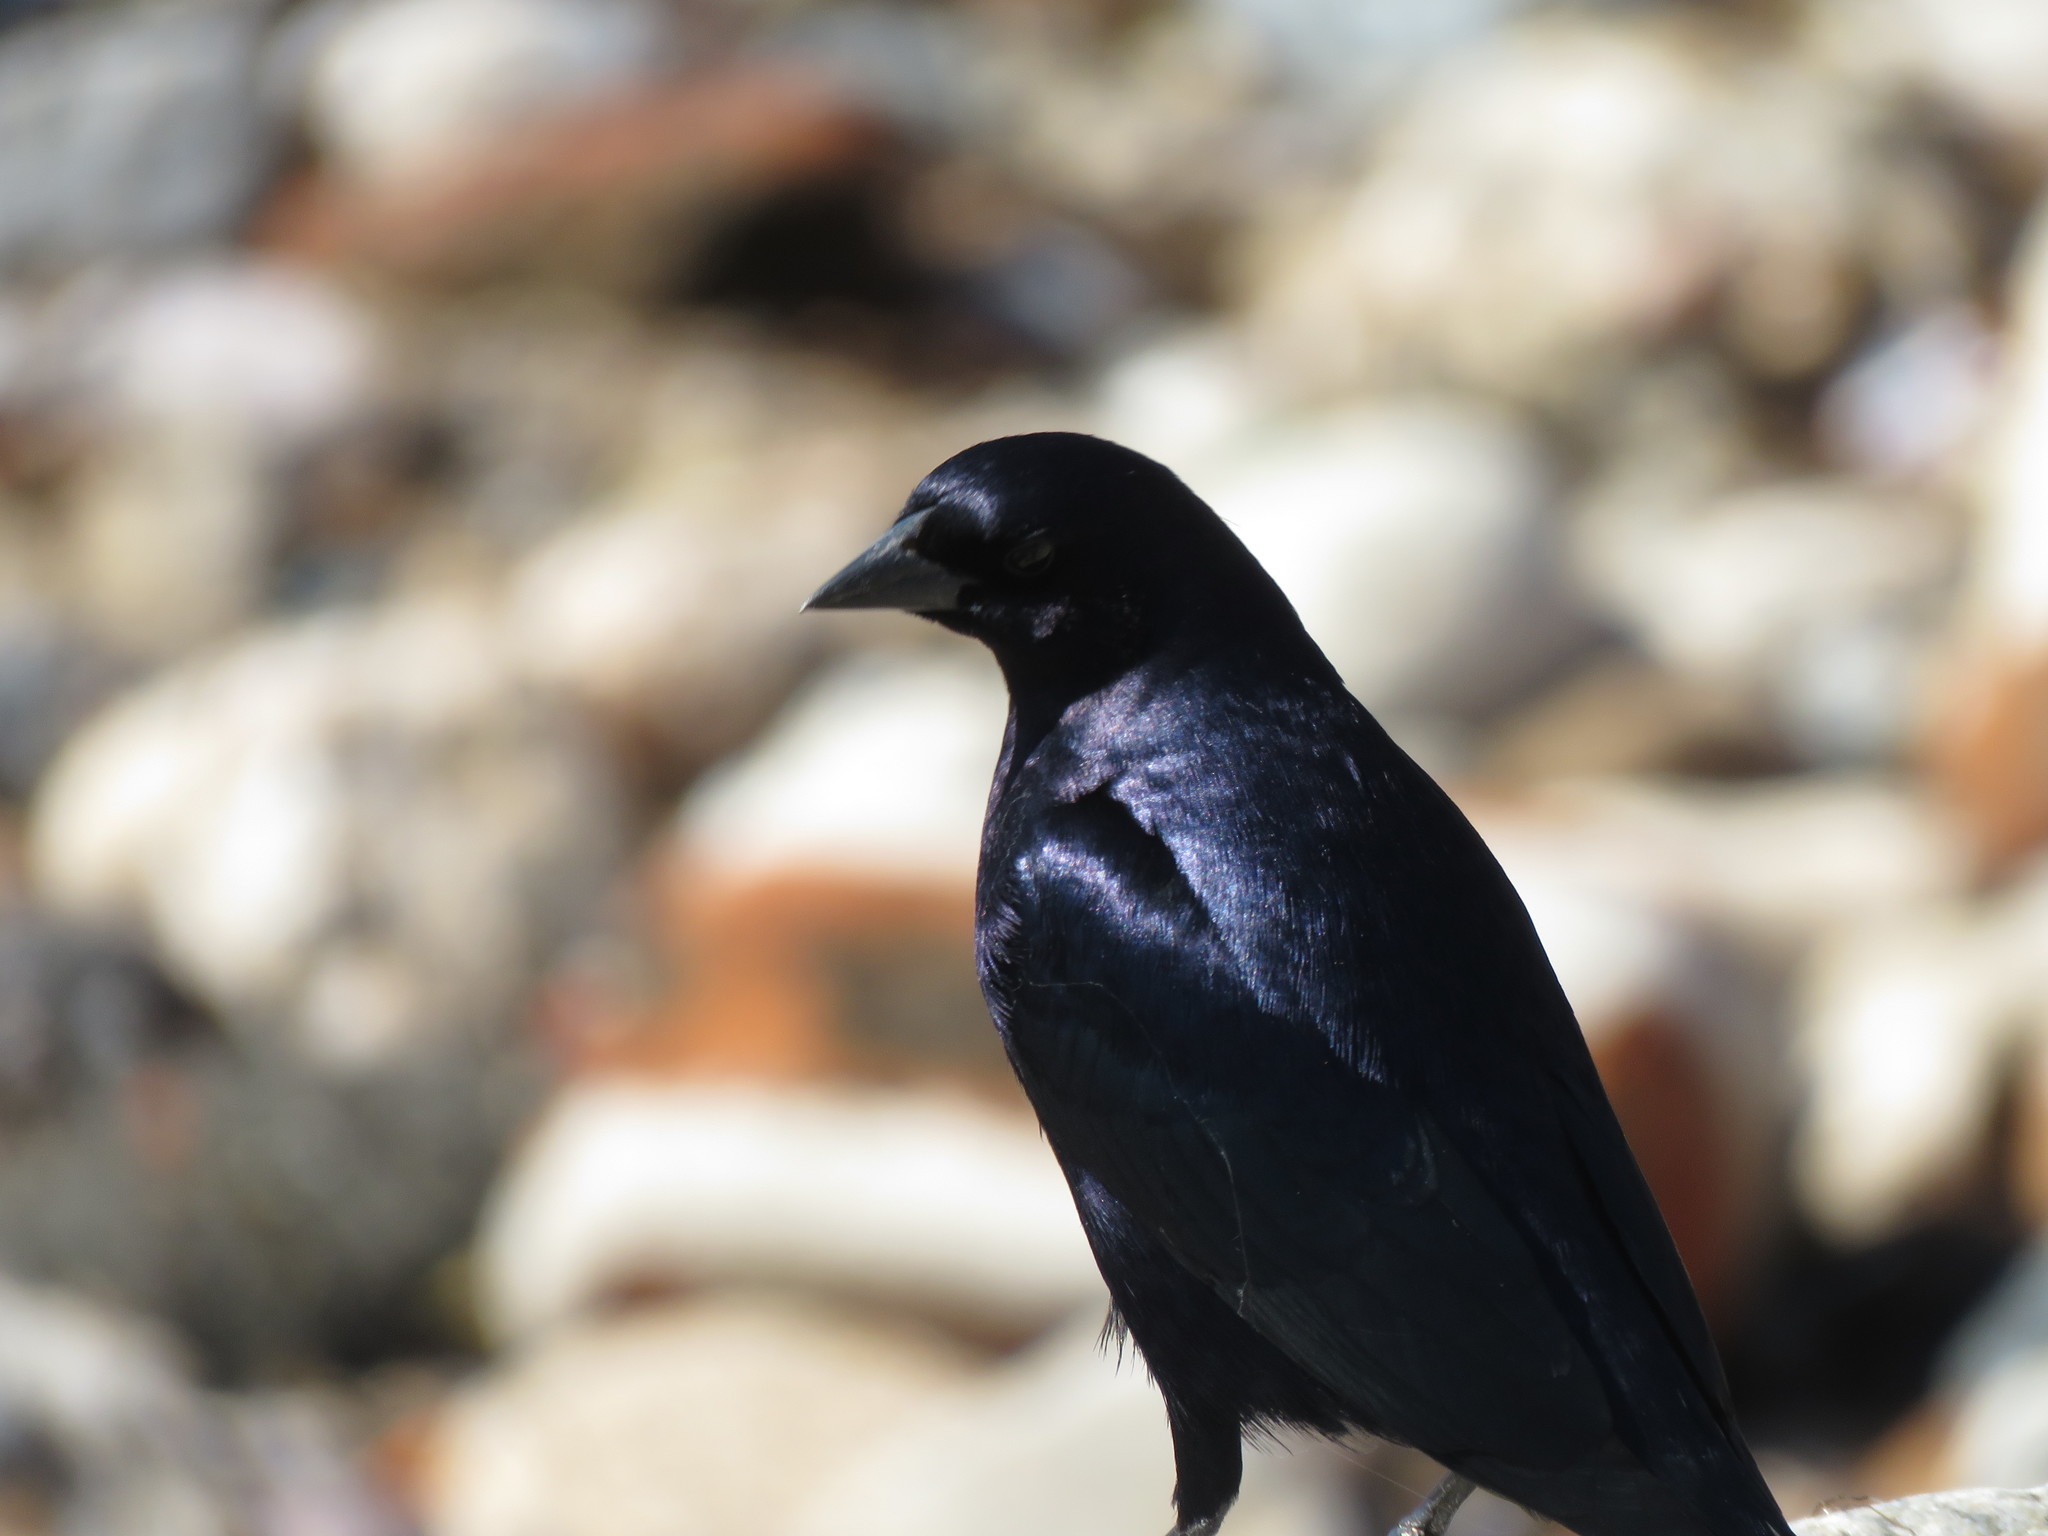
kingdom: Animalia
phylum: Chordata
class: Aves
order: Passeriformes
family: Icteridae
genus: Molothrus
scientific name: Molothrus bonariensis
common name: Shiny cowbird
